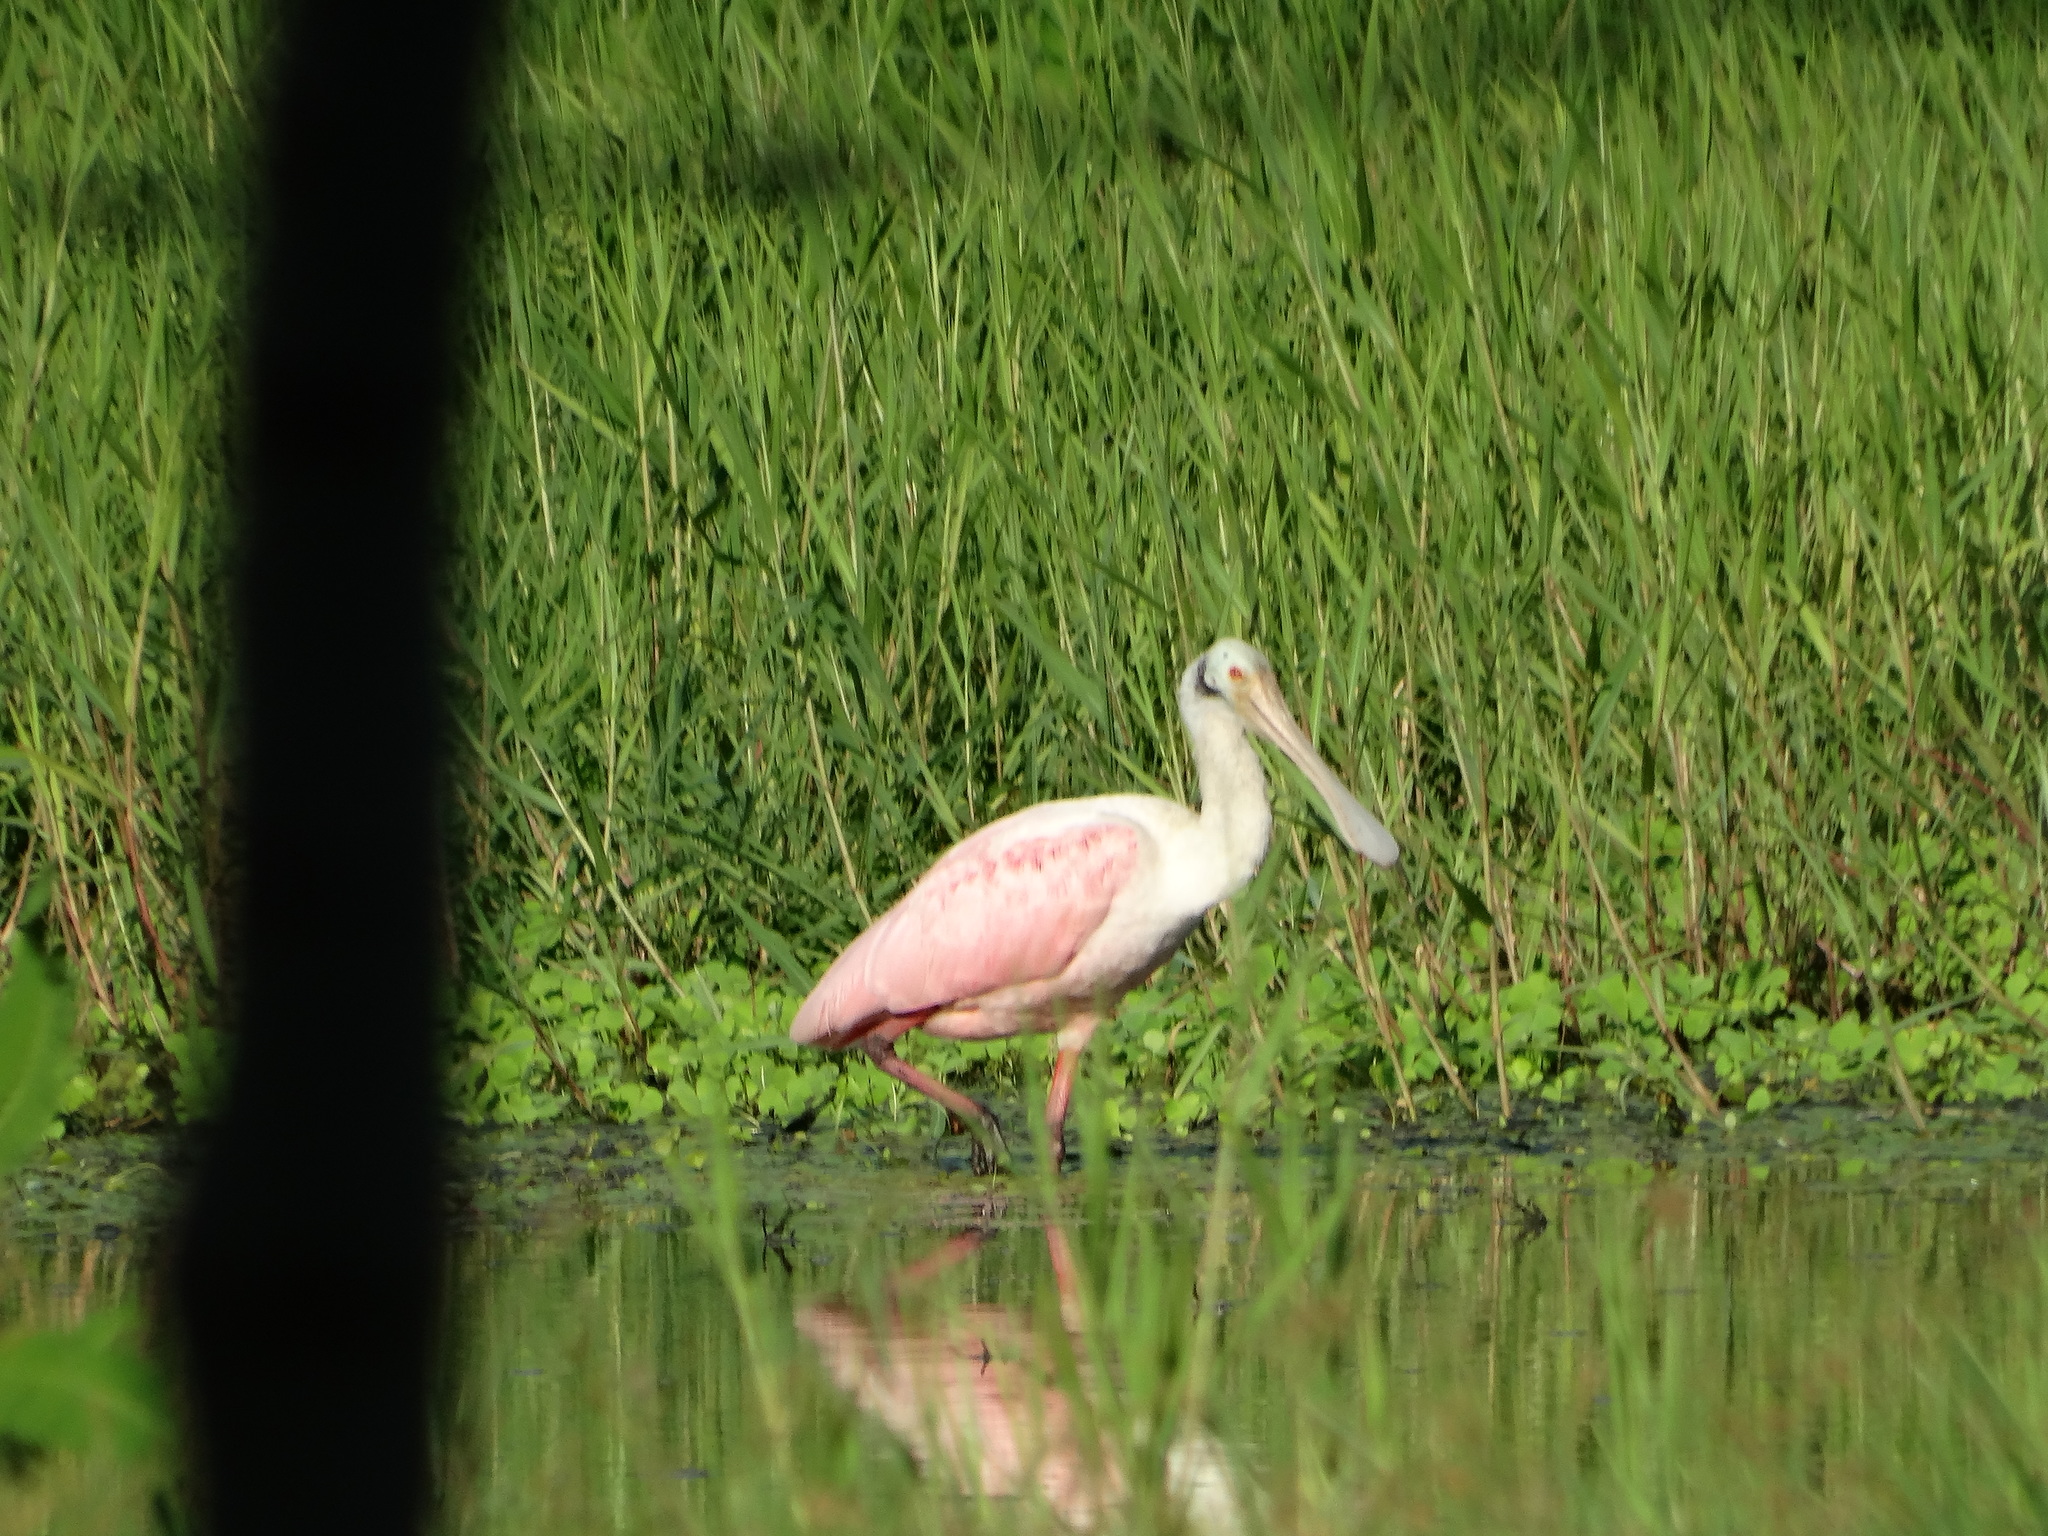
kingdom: Animalia
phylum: Chordata
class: Aves
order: Pelecaniformes
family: Threskiornithidae
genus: Platalea
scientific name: Platalea ajaja
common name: Roseate spoonbill
